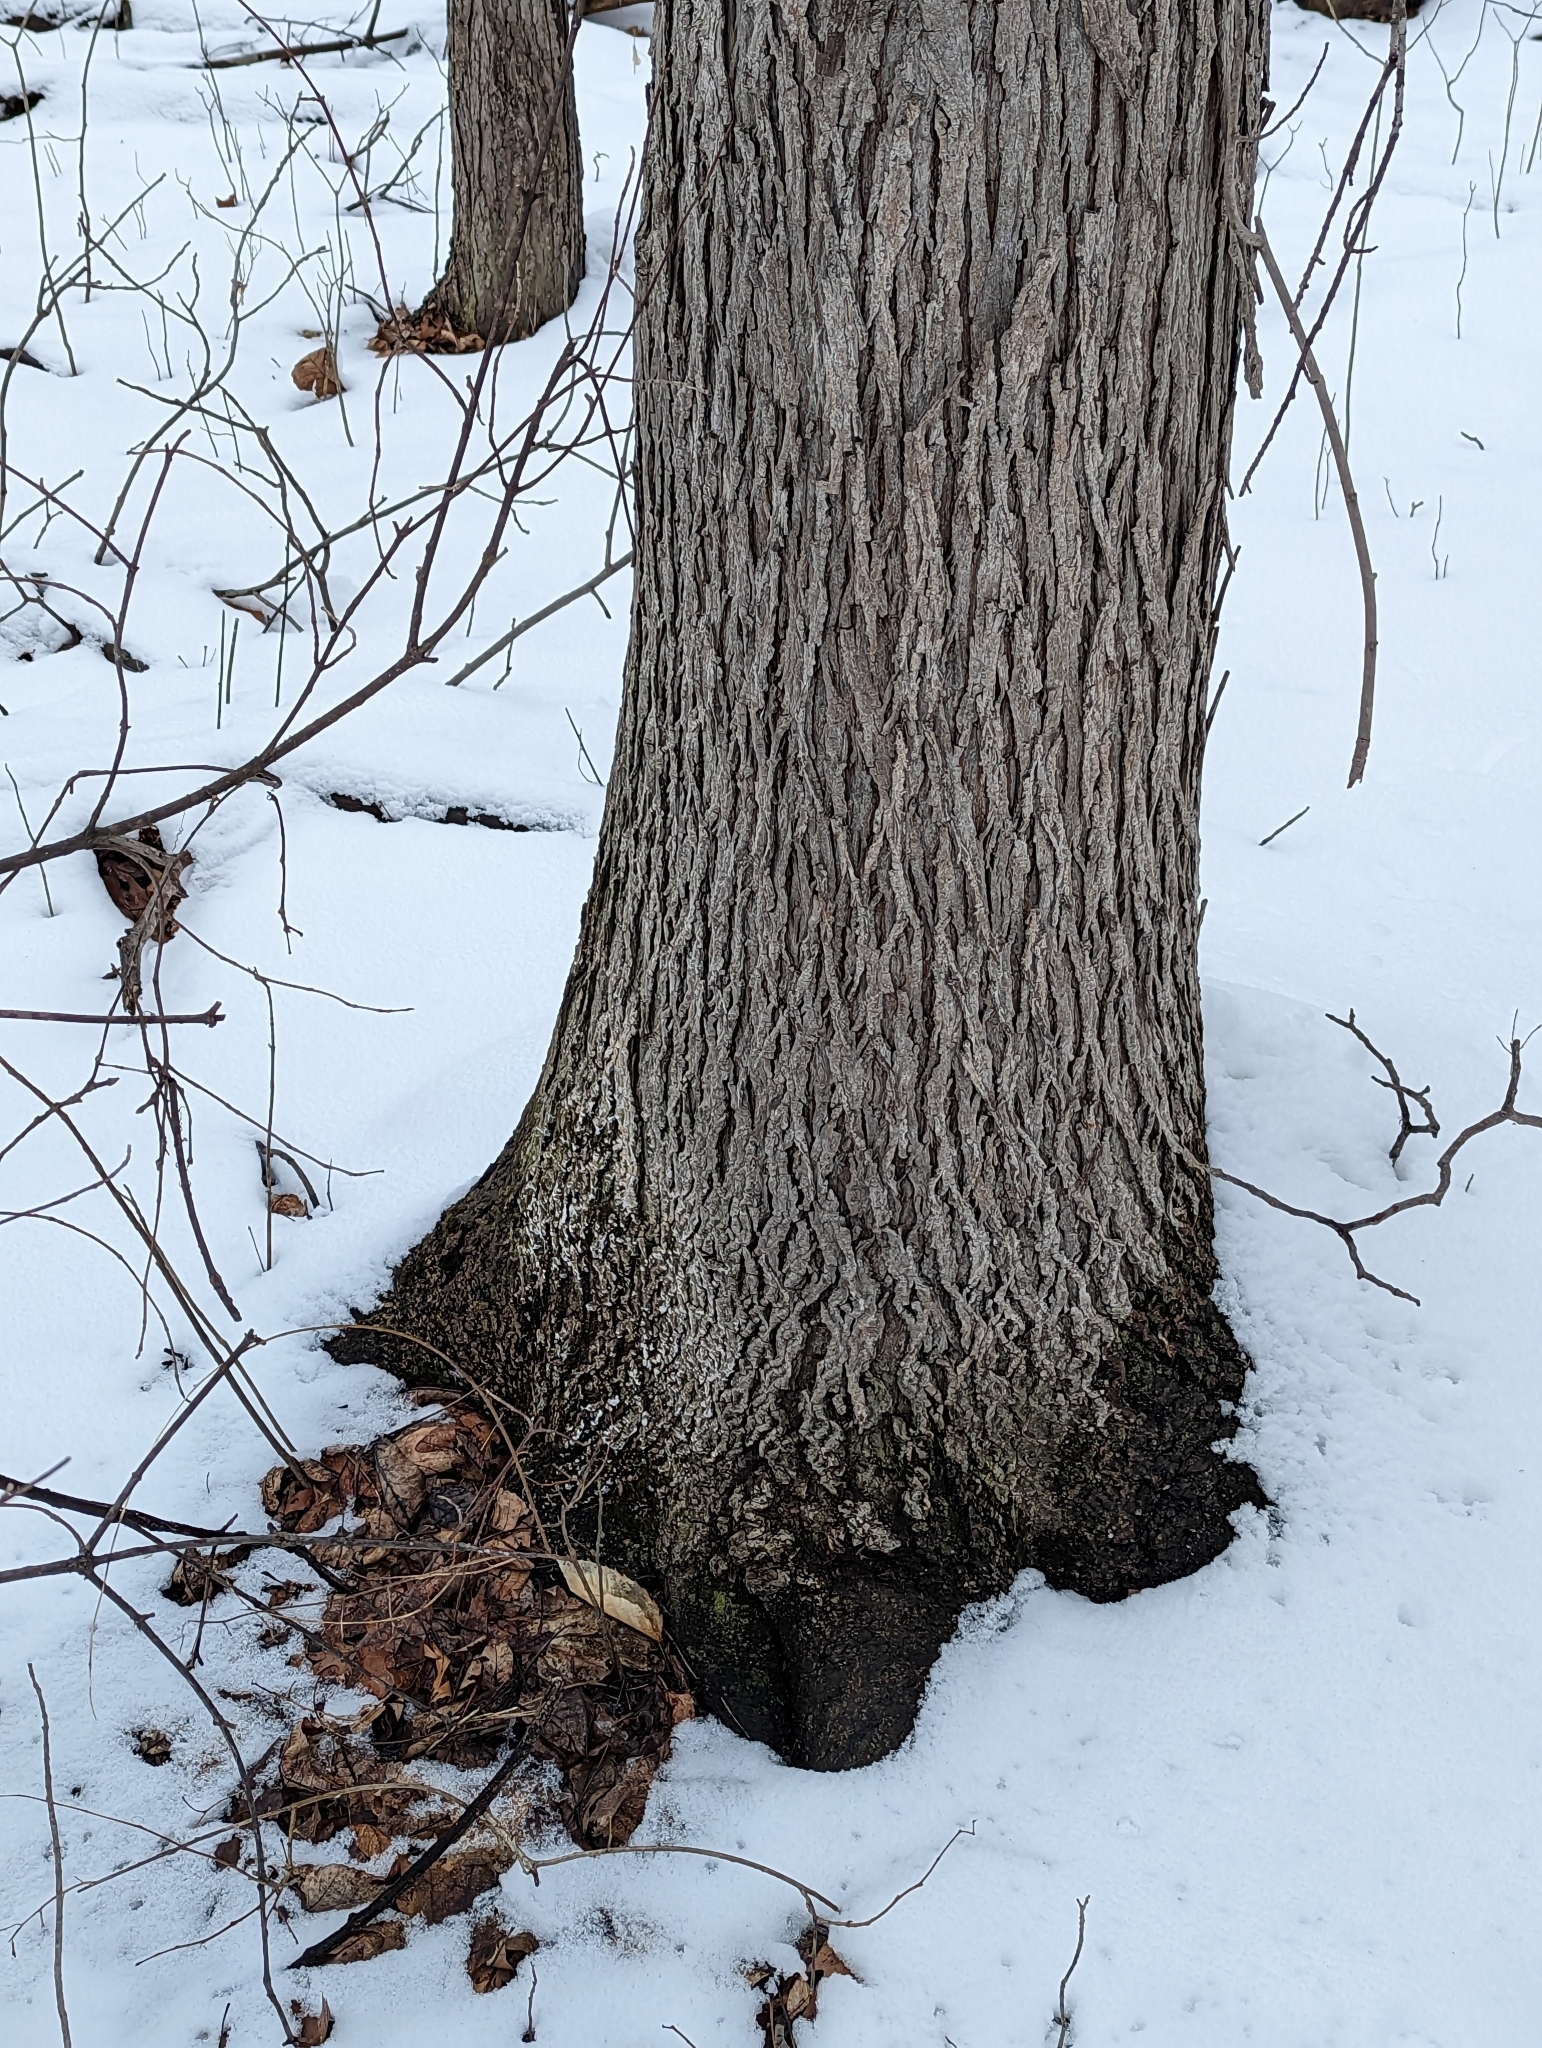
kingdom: Plantae
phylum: Tracheophyta
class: Magnoliopsida
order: Fagales
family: Juglandaceae
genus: Carya
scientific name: Carya ovata
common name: Shagbark hickory
